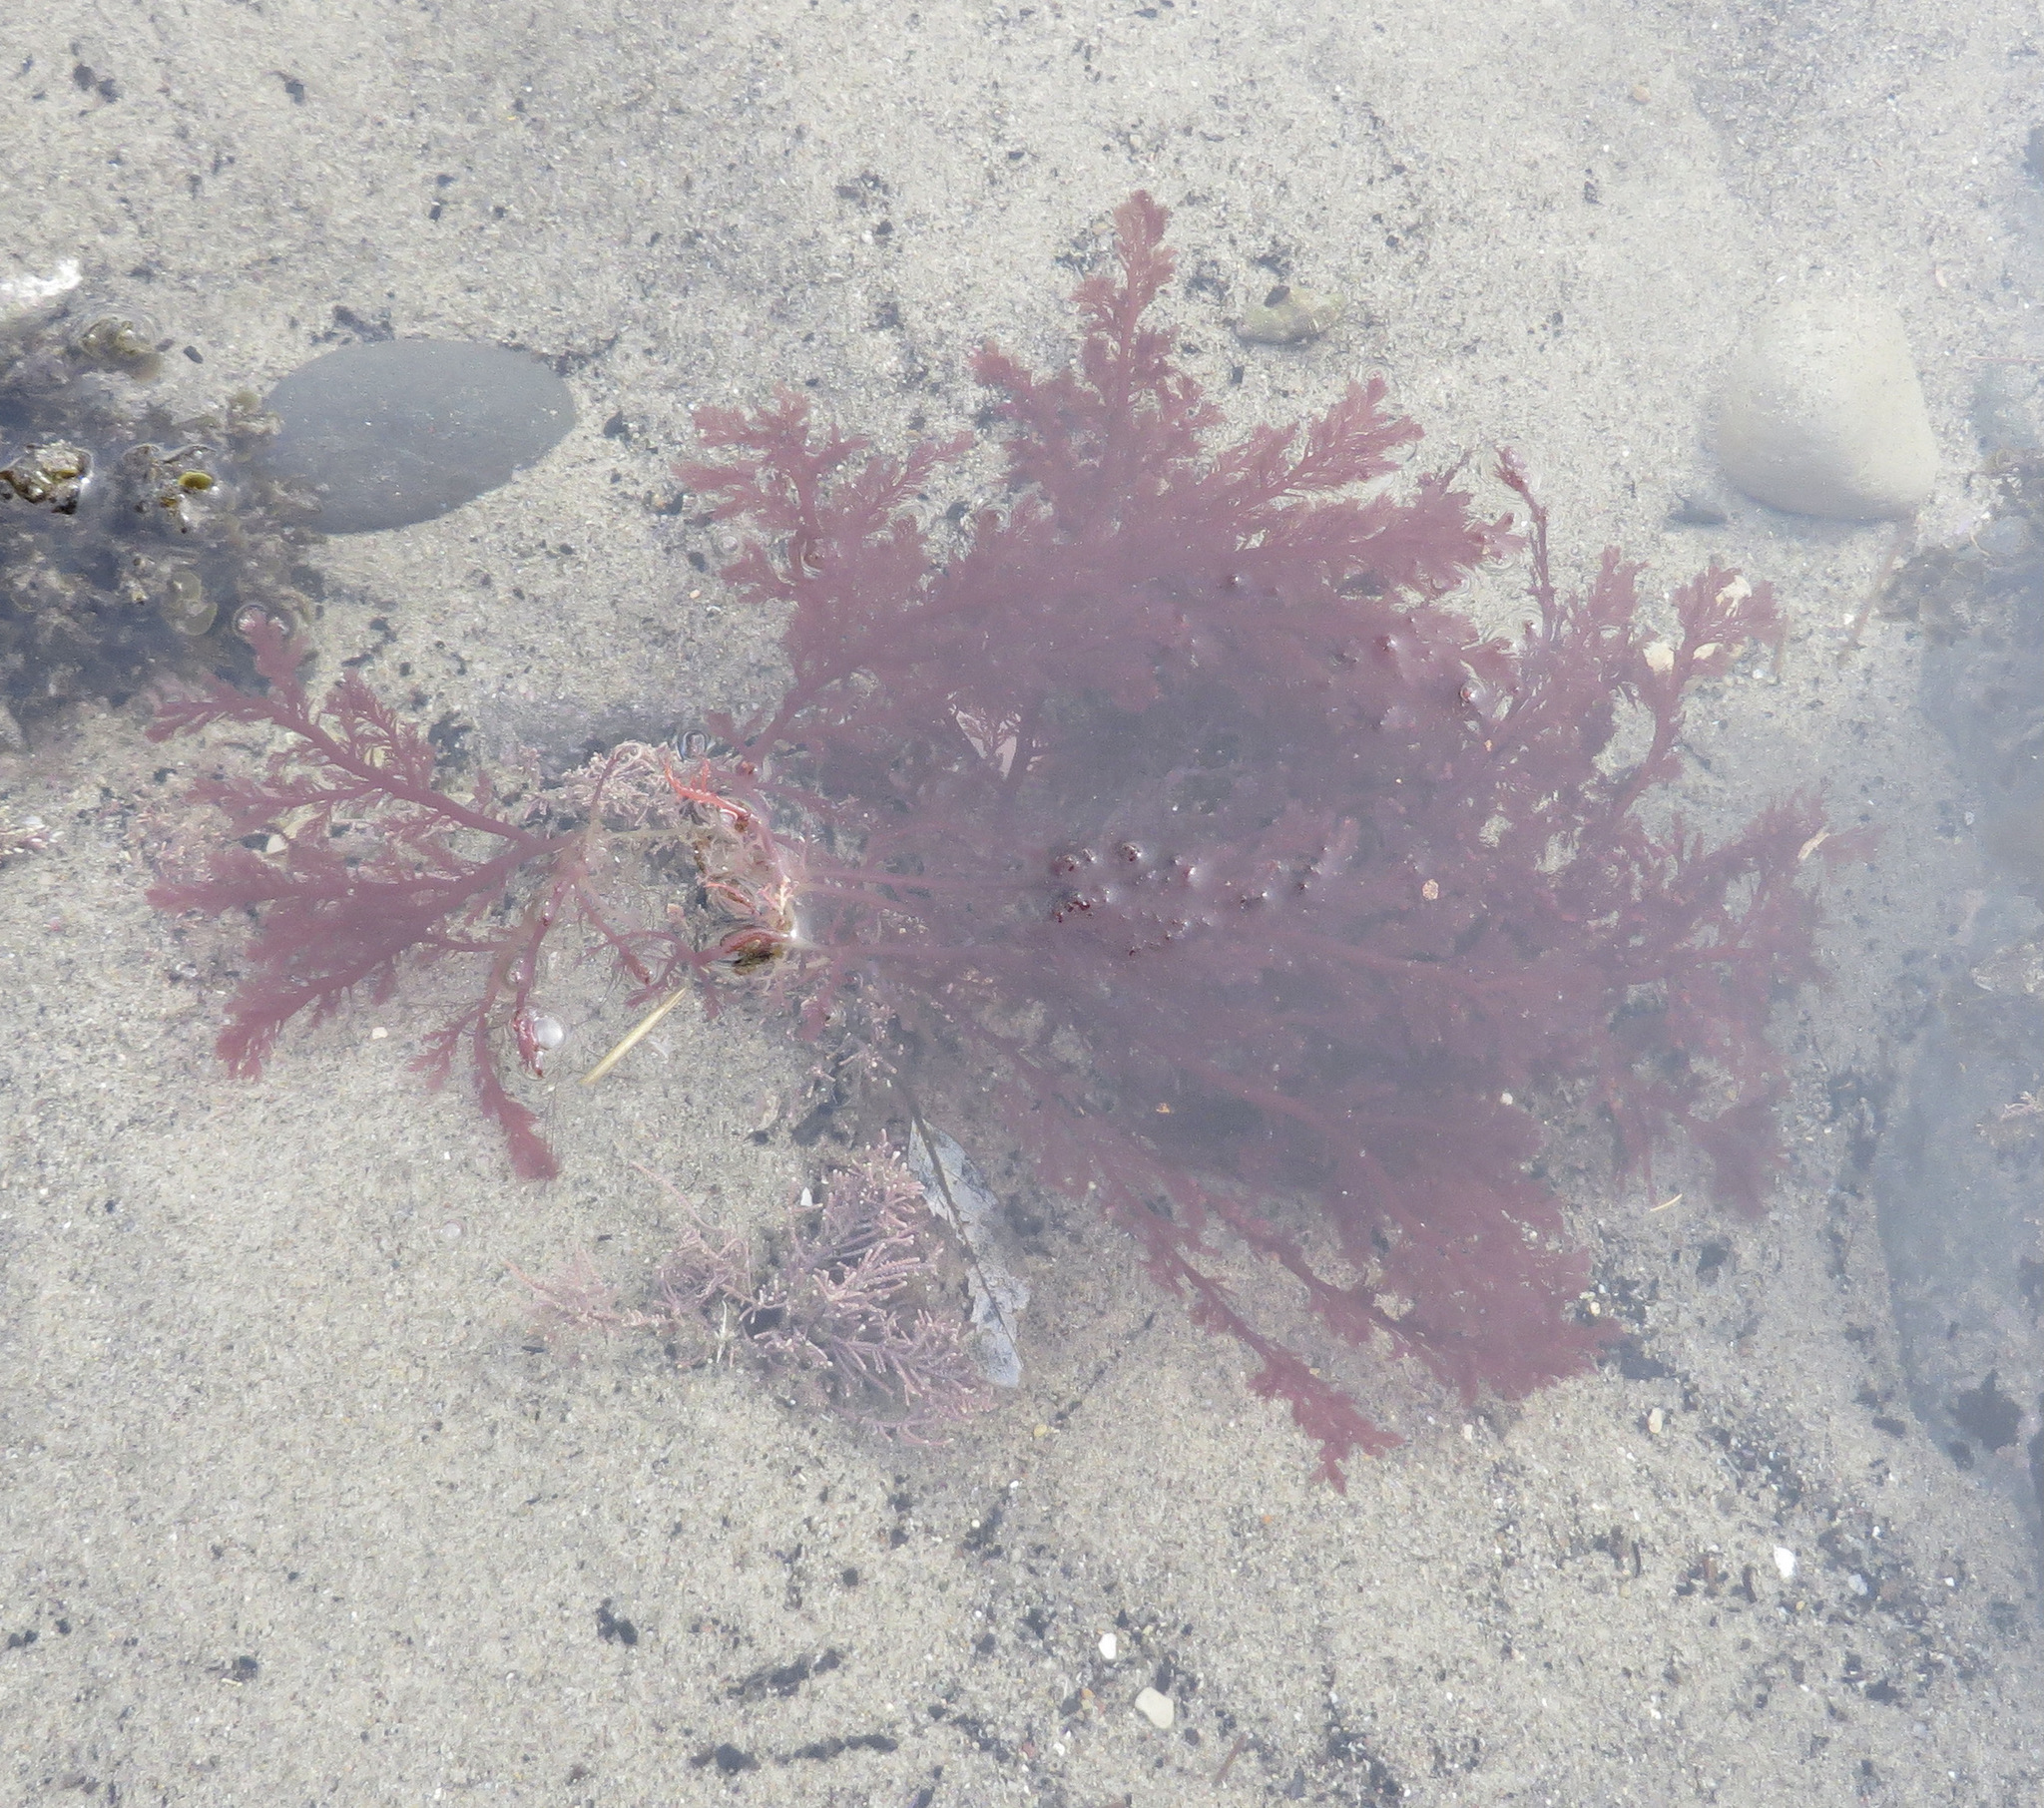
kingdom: Plantae
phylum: Rhodophyta
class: Florideophyceae
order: Plocamiales
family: Plocamiaceae
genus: Plocamium
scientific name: Plocamium cartilagineum
